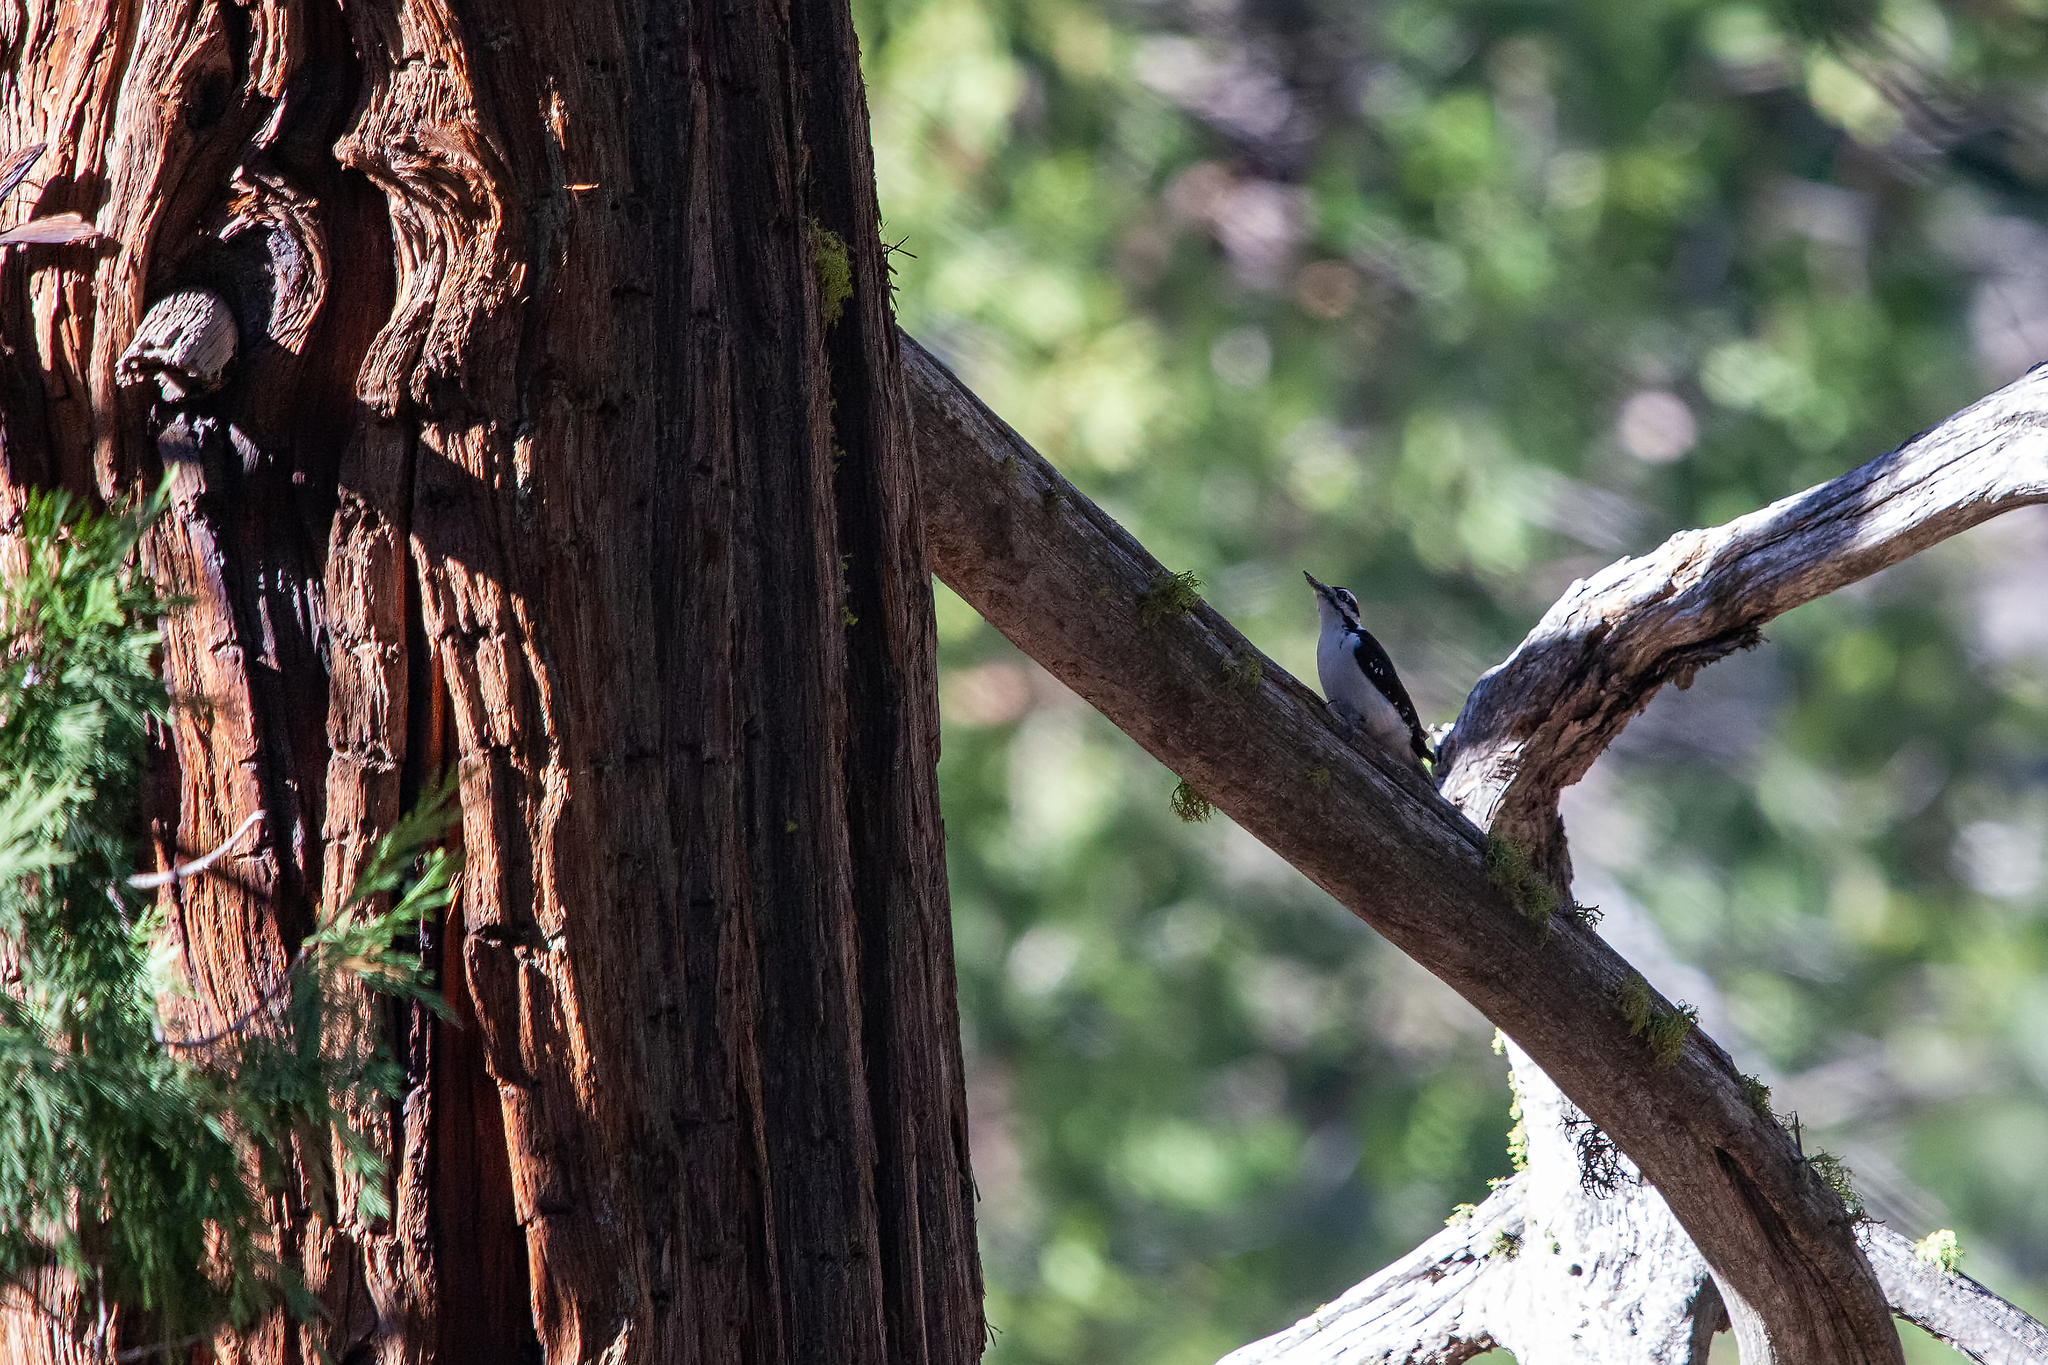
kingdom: Animalia
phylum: Chordata
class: Aves
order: Piciformes
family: Picidae
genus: Leuconotopicus
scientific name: Leuconotopicus villosus
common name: Hairy woodpecker
